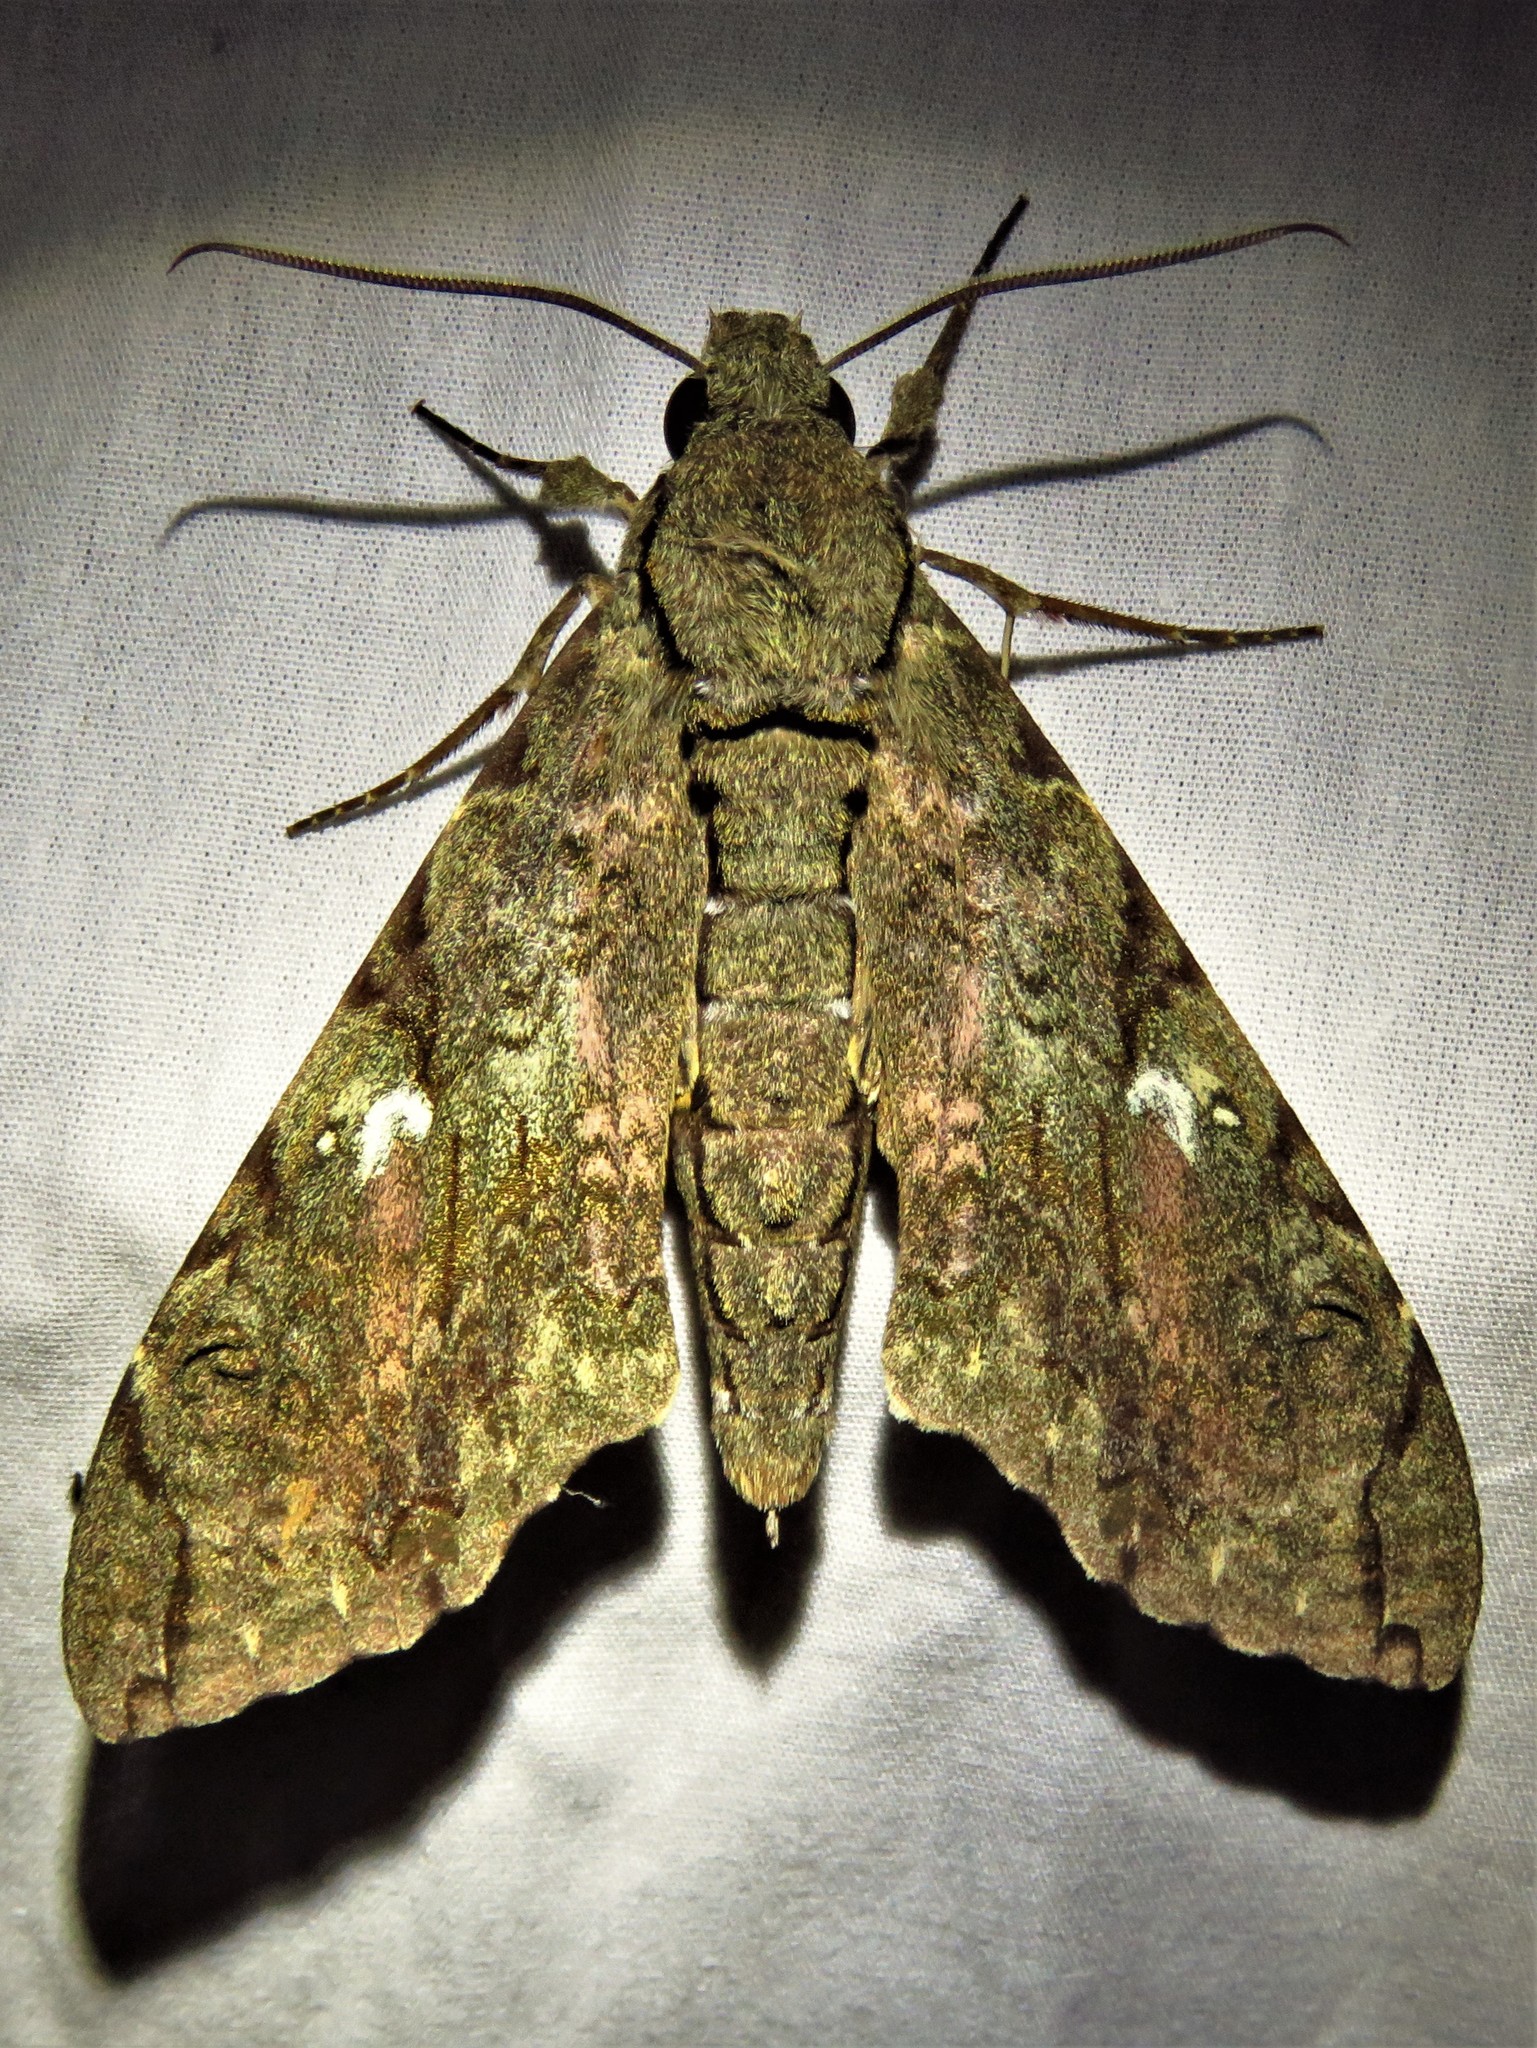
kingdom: Animalia
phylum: Arthropoda
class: Insecta
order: Lepidoptera
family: Sphingidae
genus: Xanthopan
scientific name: Xanthopan morganii
